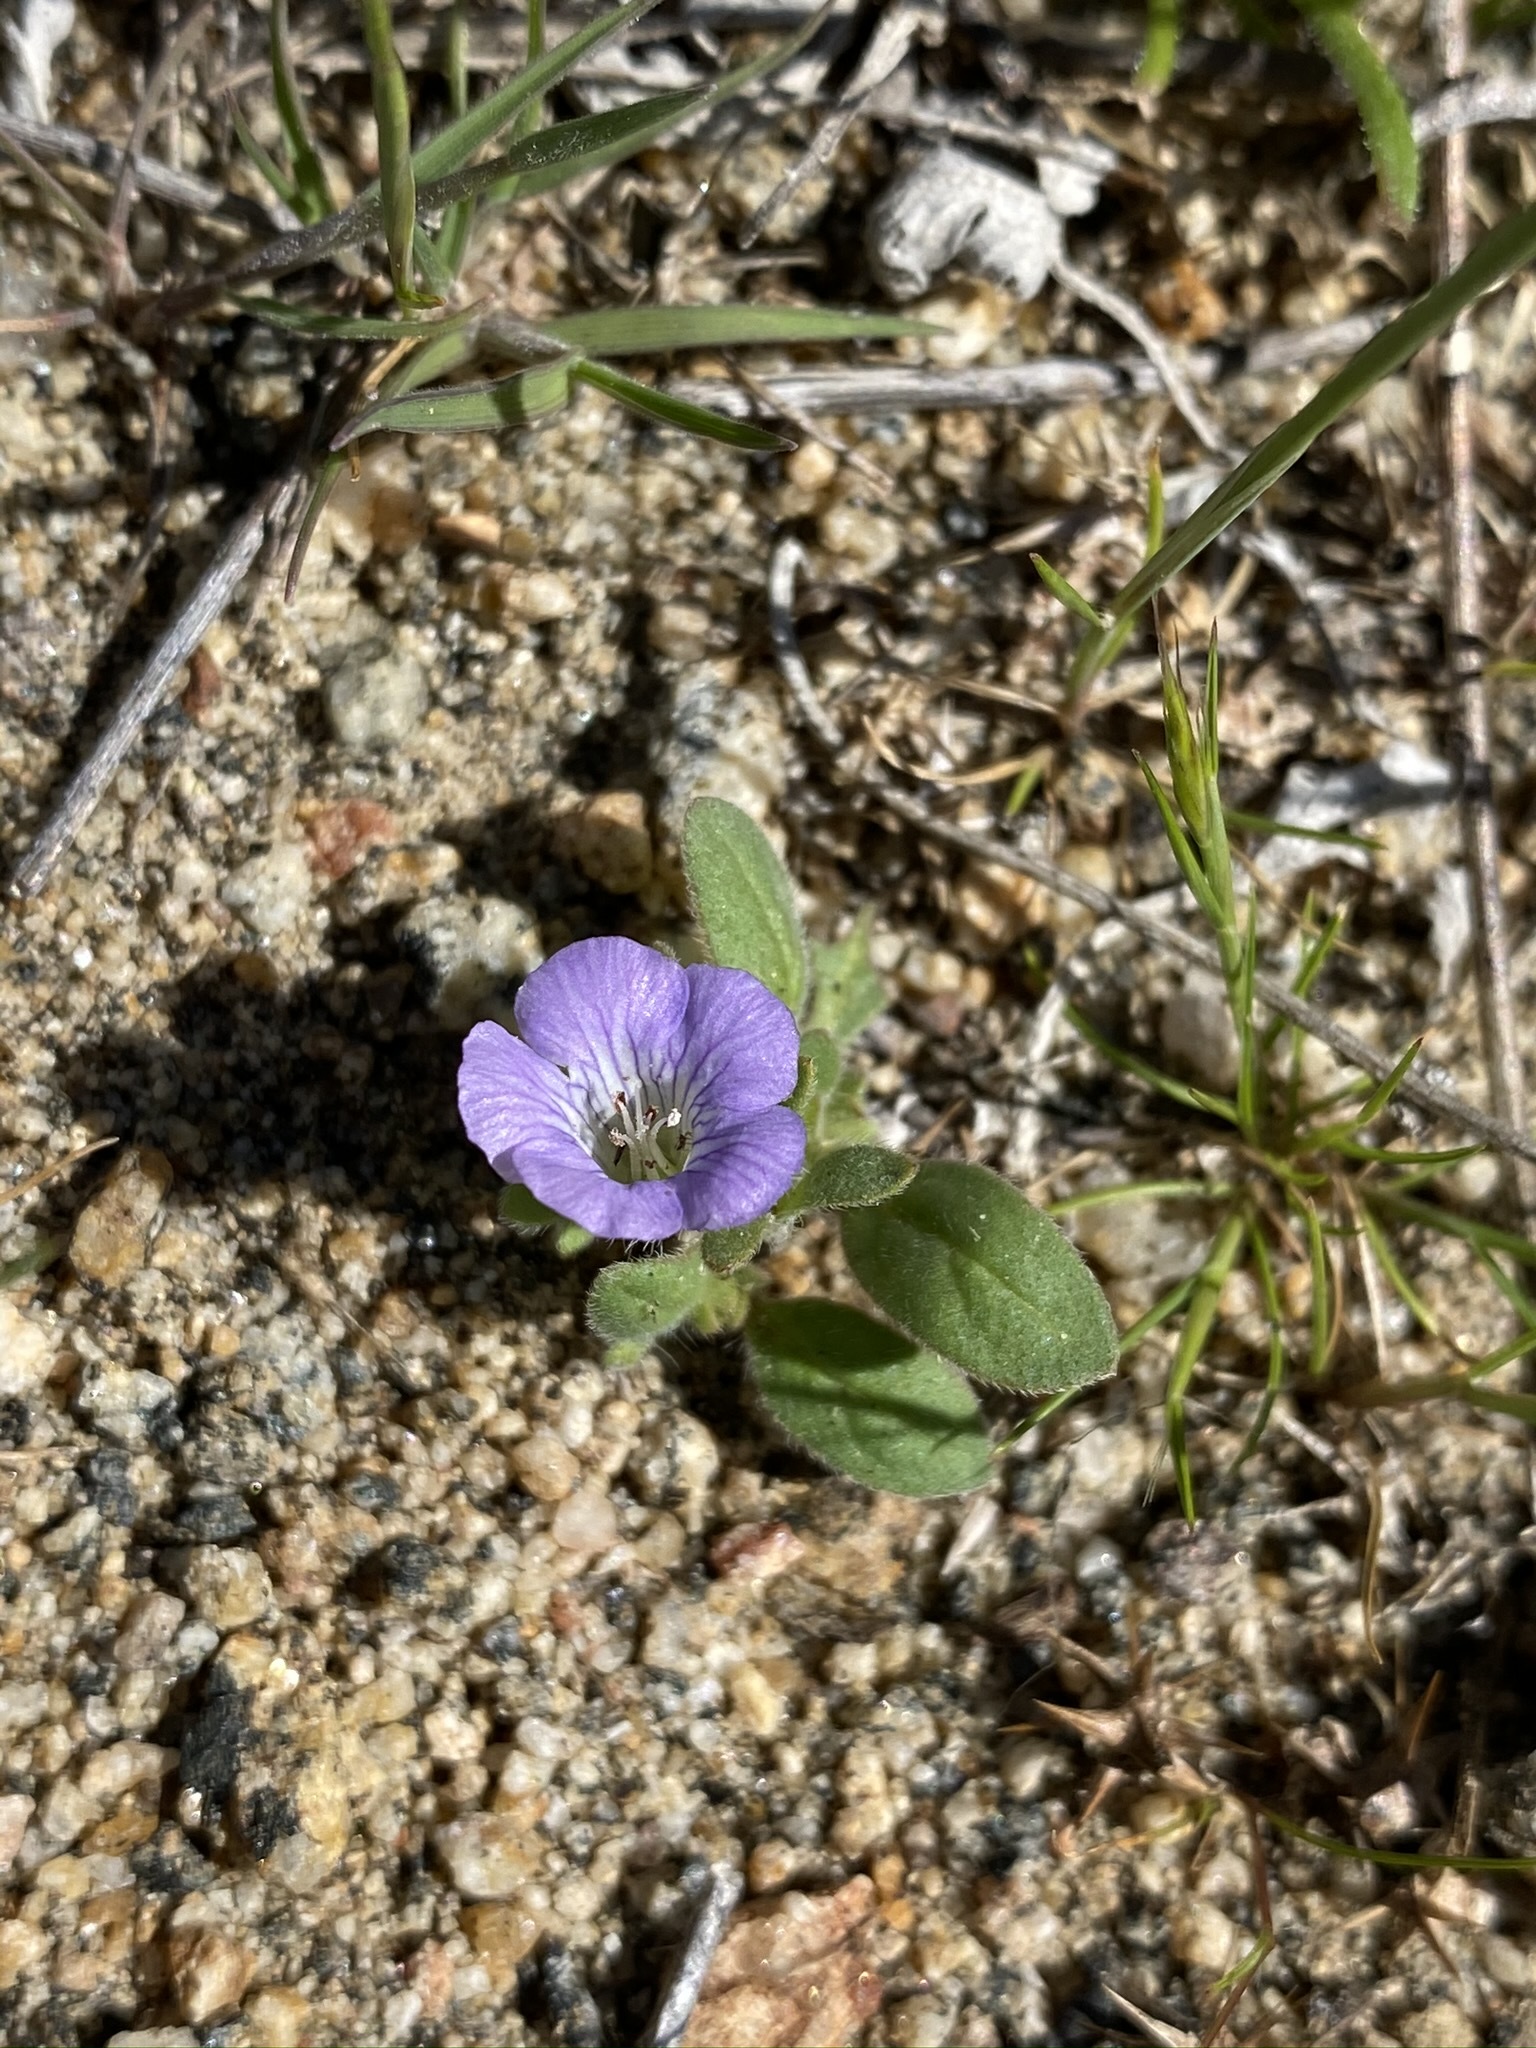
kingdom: Plantae
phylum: Tracheophyta
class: Magnoliopsida
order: Boraginales
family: Hydrophyllaceae
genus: Phacelia
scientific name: Phacelia douglasii
